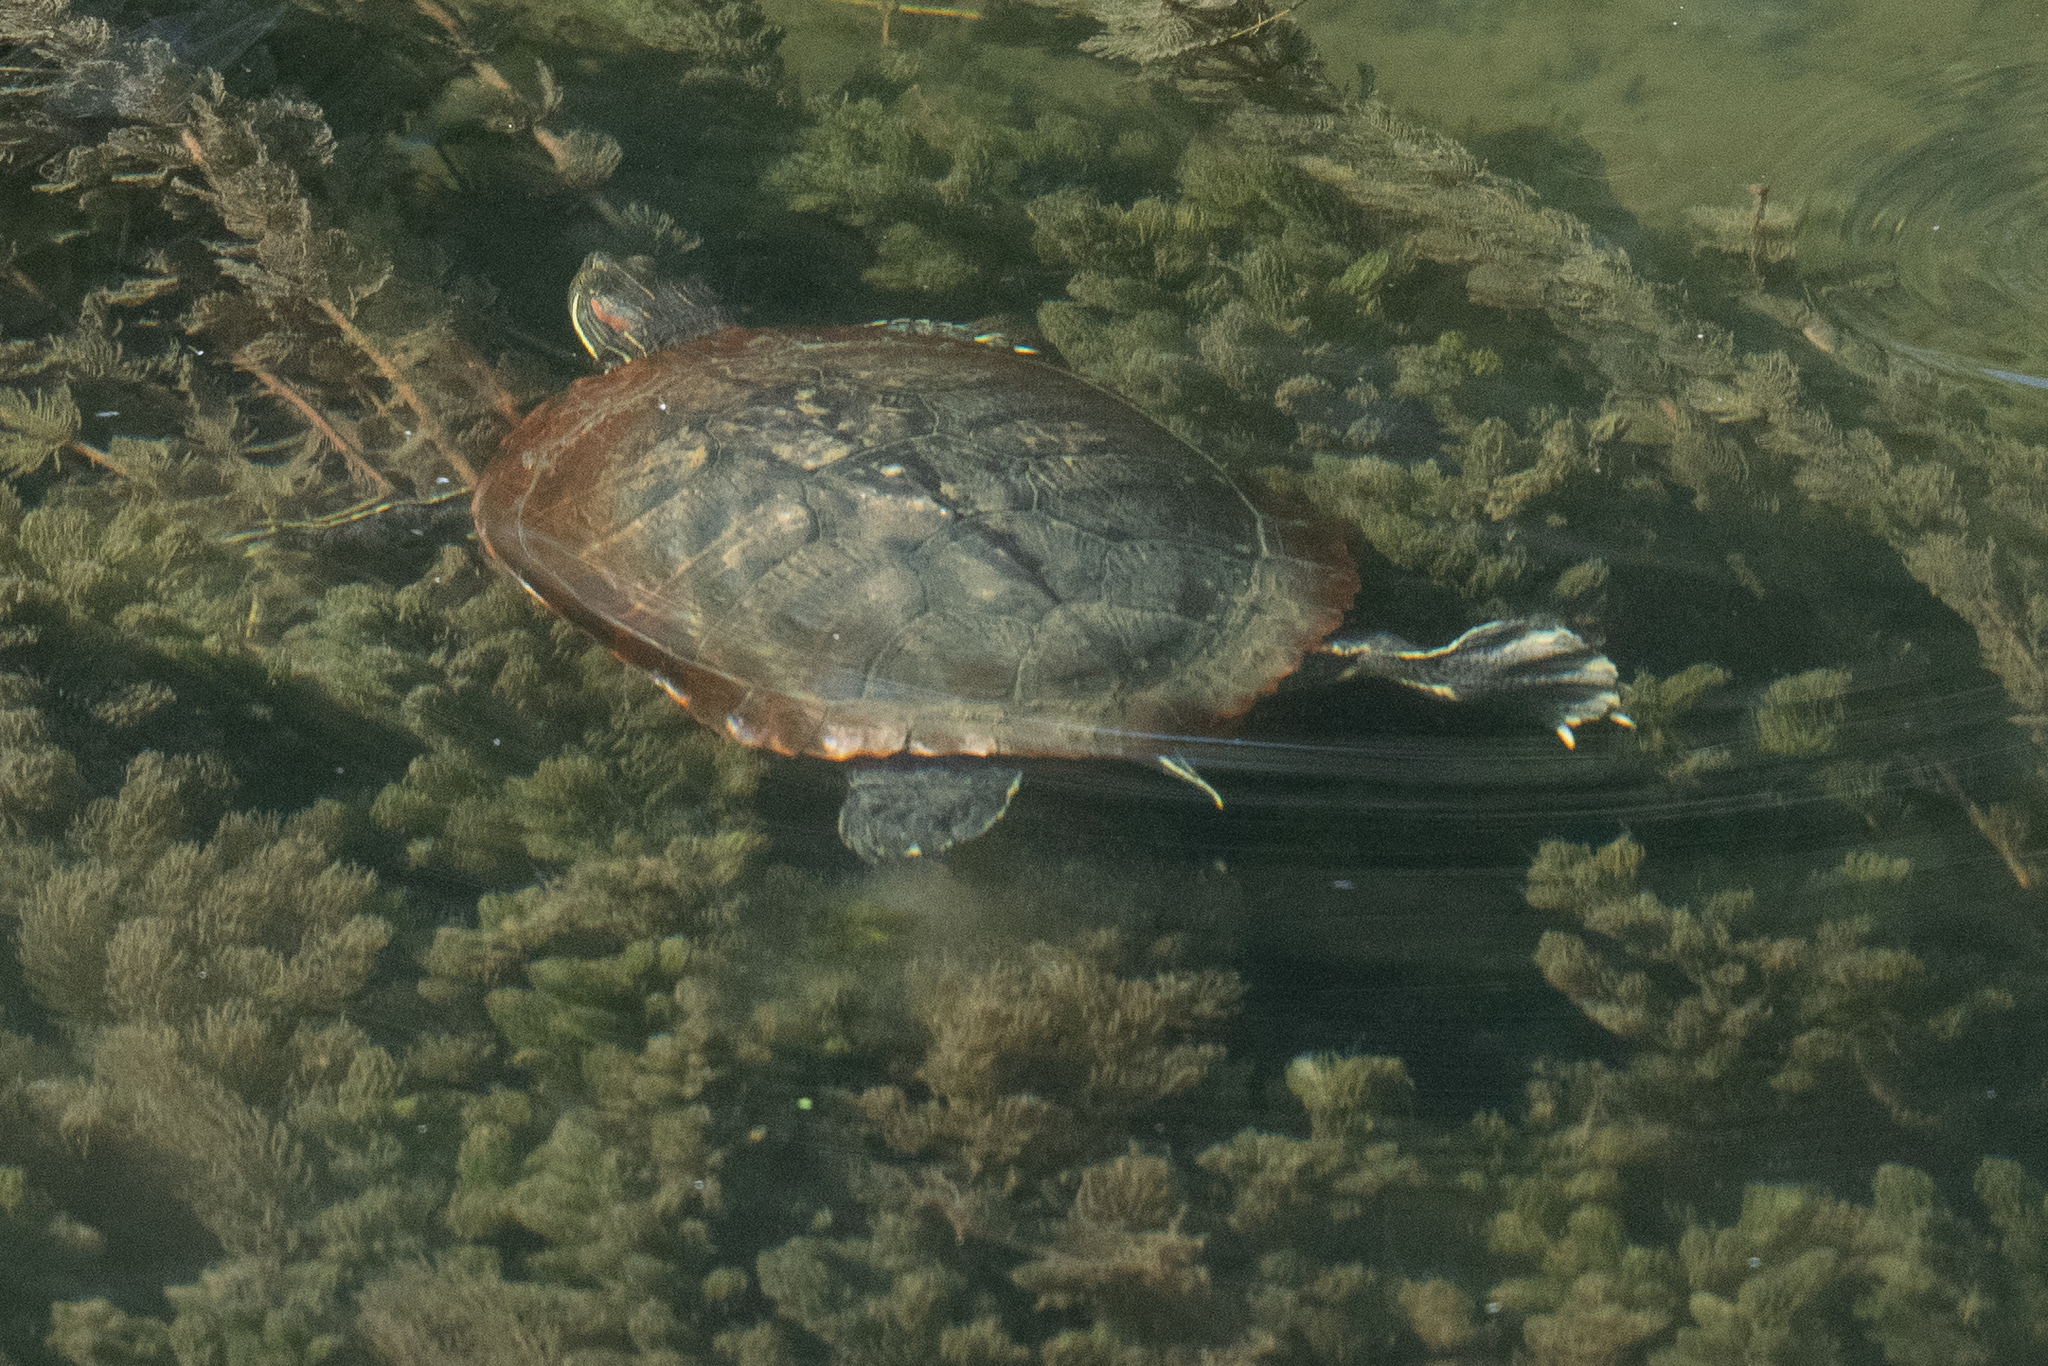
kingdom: Animalia
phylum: Chordata
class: Testudines
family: Emydidae
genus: Trachemys
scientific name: Trachemys scripta
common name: Slider
